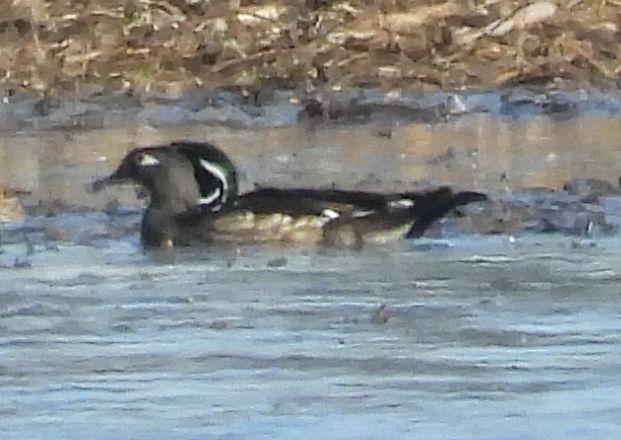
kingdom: Animalia
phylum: Chordata
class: Aves
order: Anseriformes
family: Anatidae
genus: Aix
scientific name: Aix sponsa
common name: Wood duck
